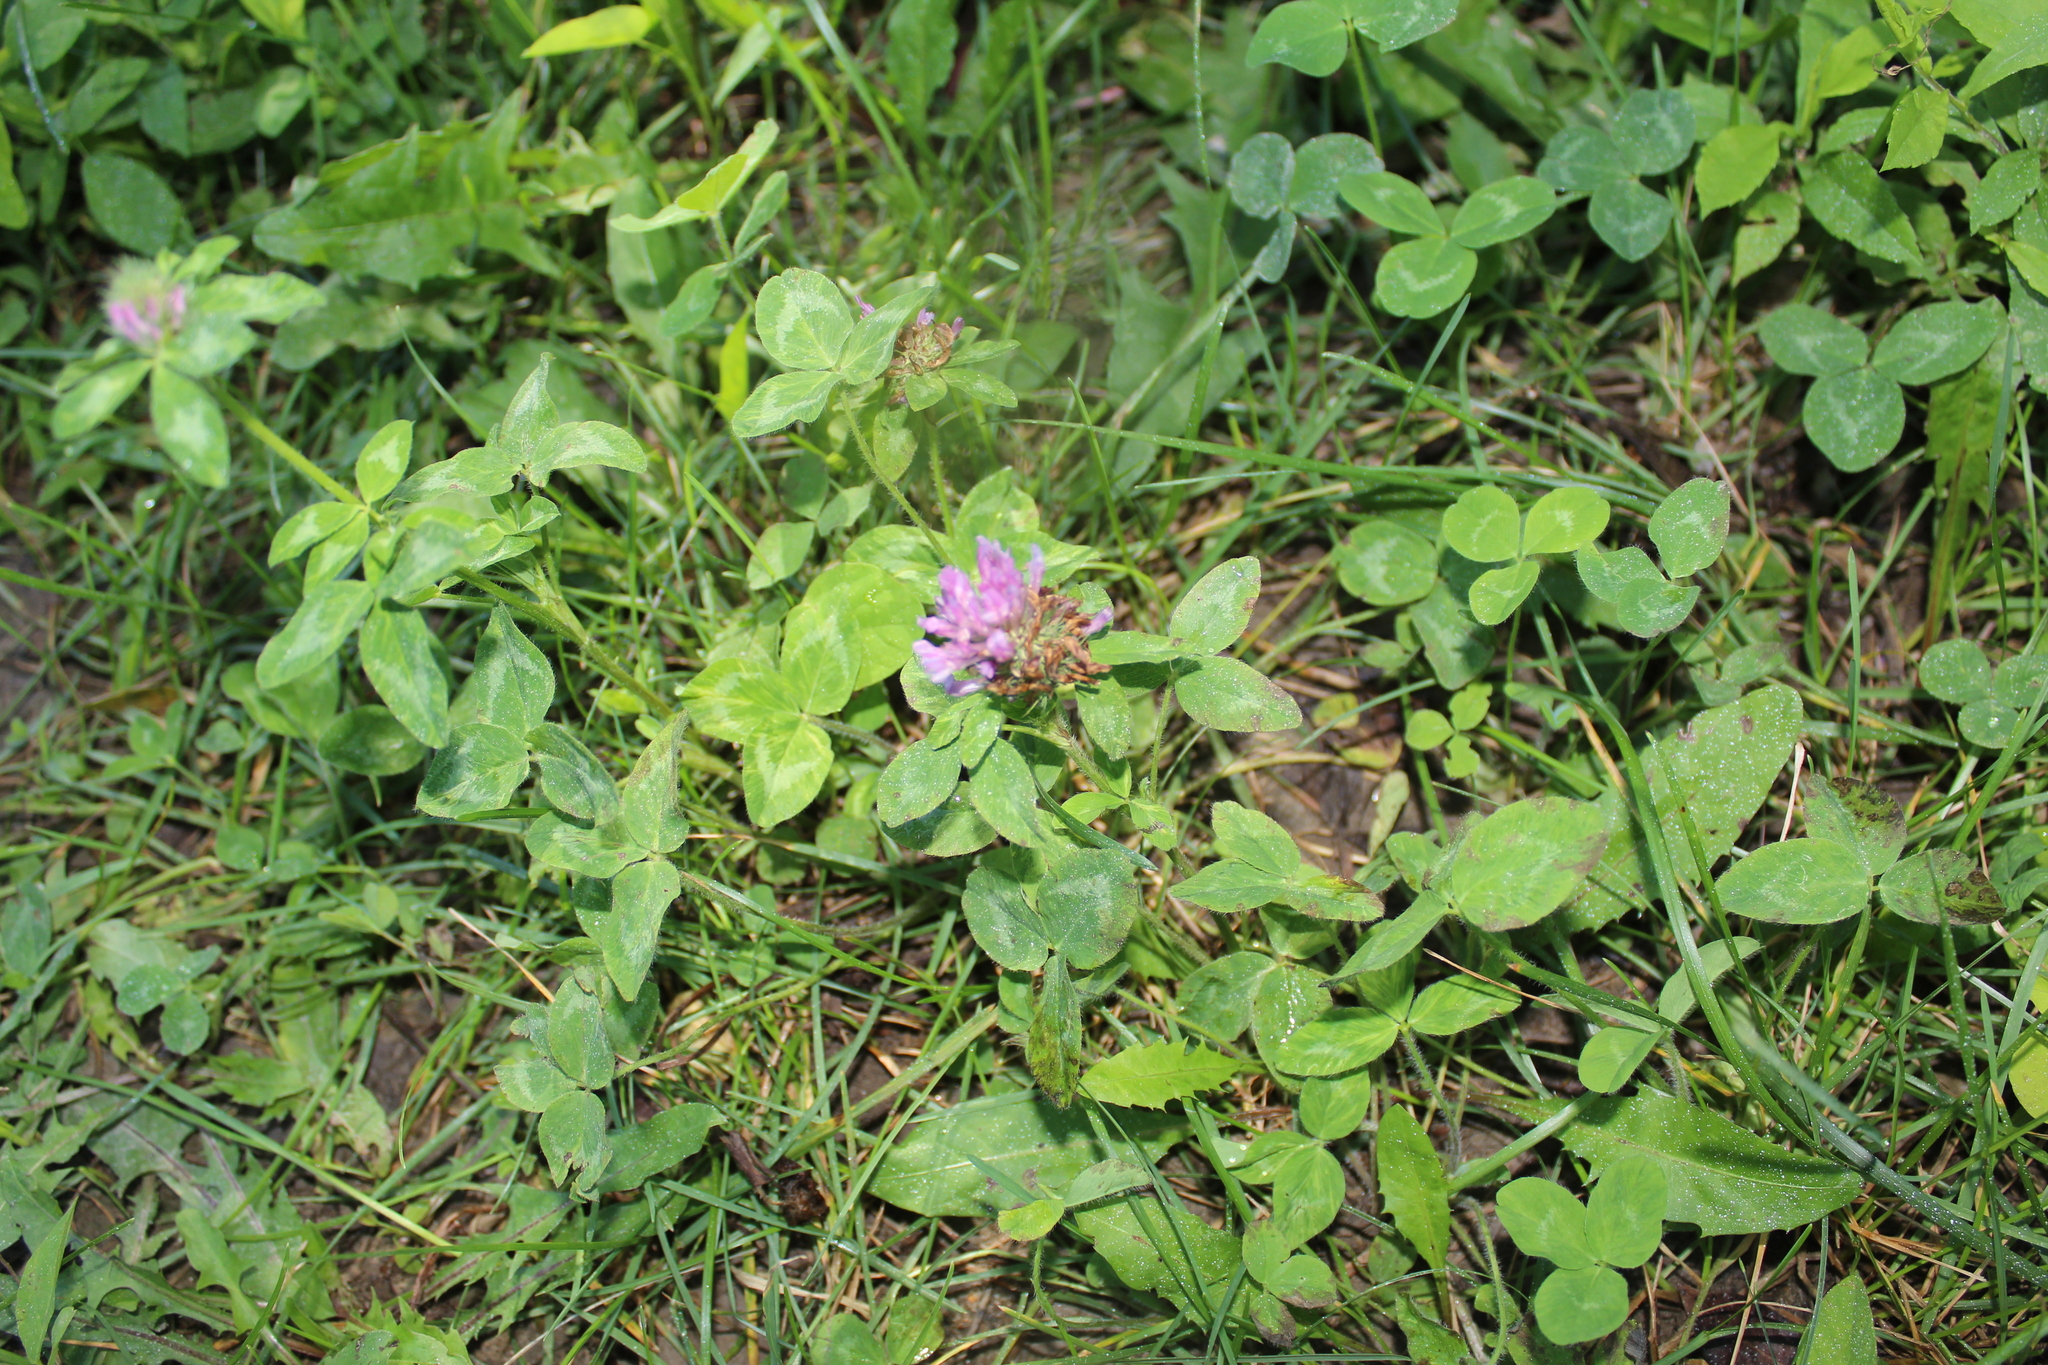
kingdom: Plantae
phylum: Tracheophyta
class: Magnoliopsida
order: Fabales
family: Fabaceae
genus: Trifolium
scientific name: Trifolium pratense
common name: Red clover
